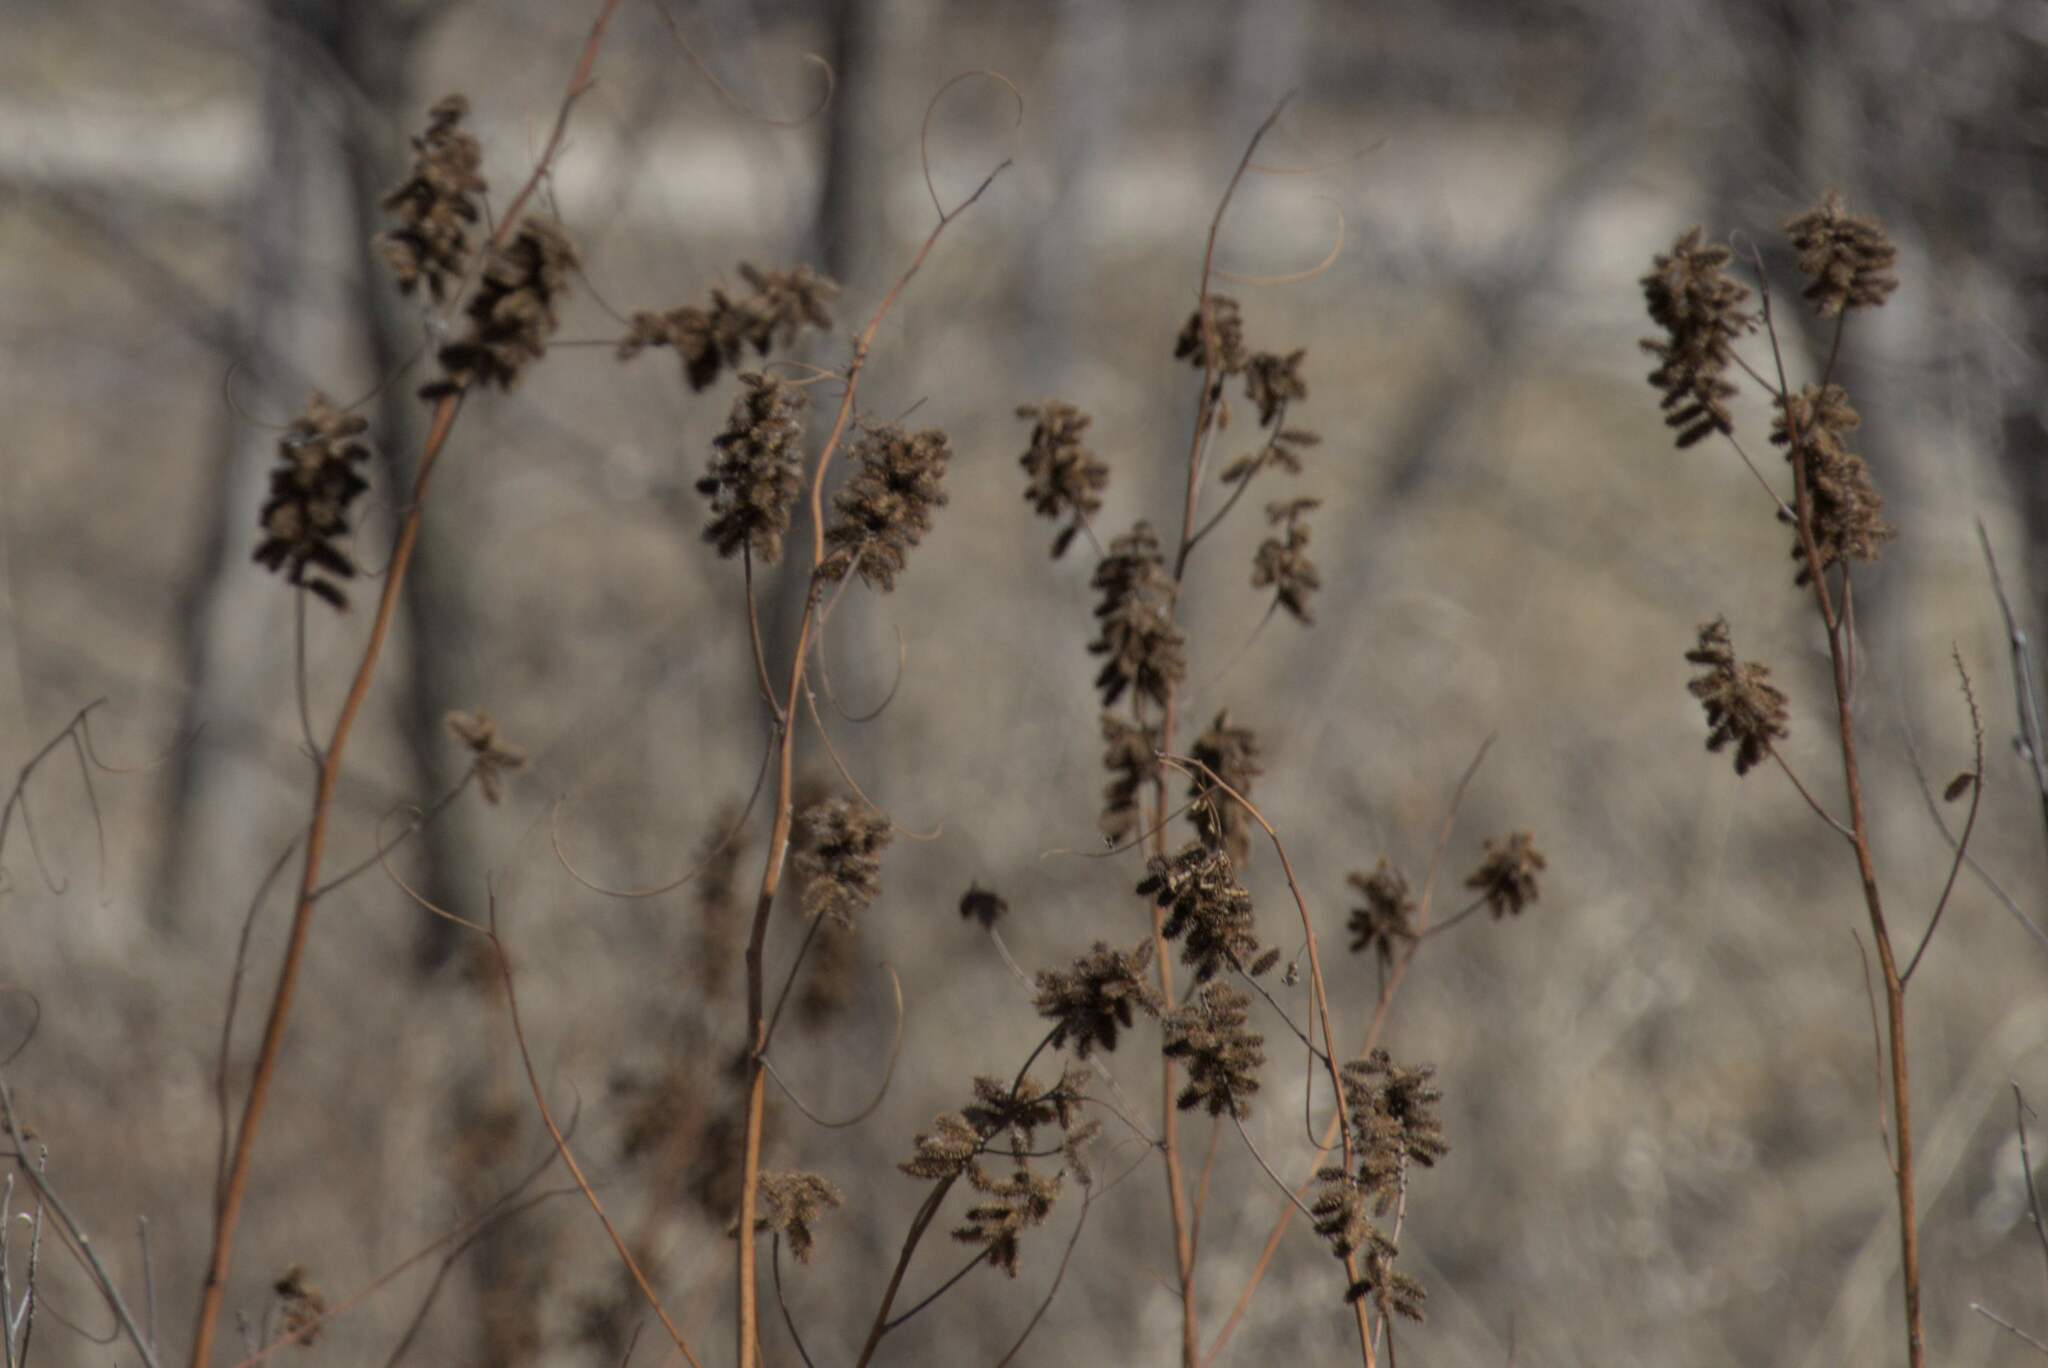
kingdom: Plantae
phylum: Tracheophyta
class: Magnoliopsida
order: Fabales
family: Fabaceae
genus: Glycyrrhiza
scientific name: Glycyrrhiza lepidota
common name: American liquorice
